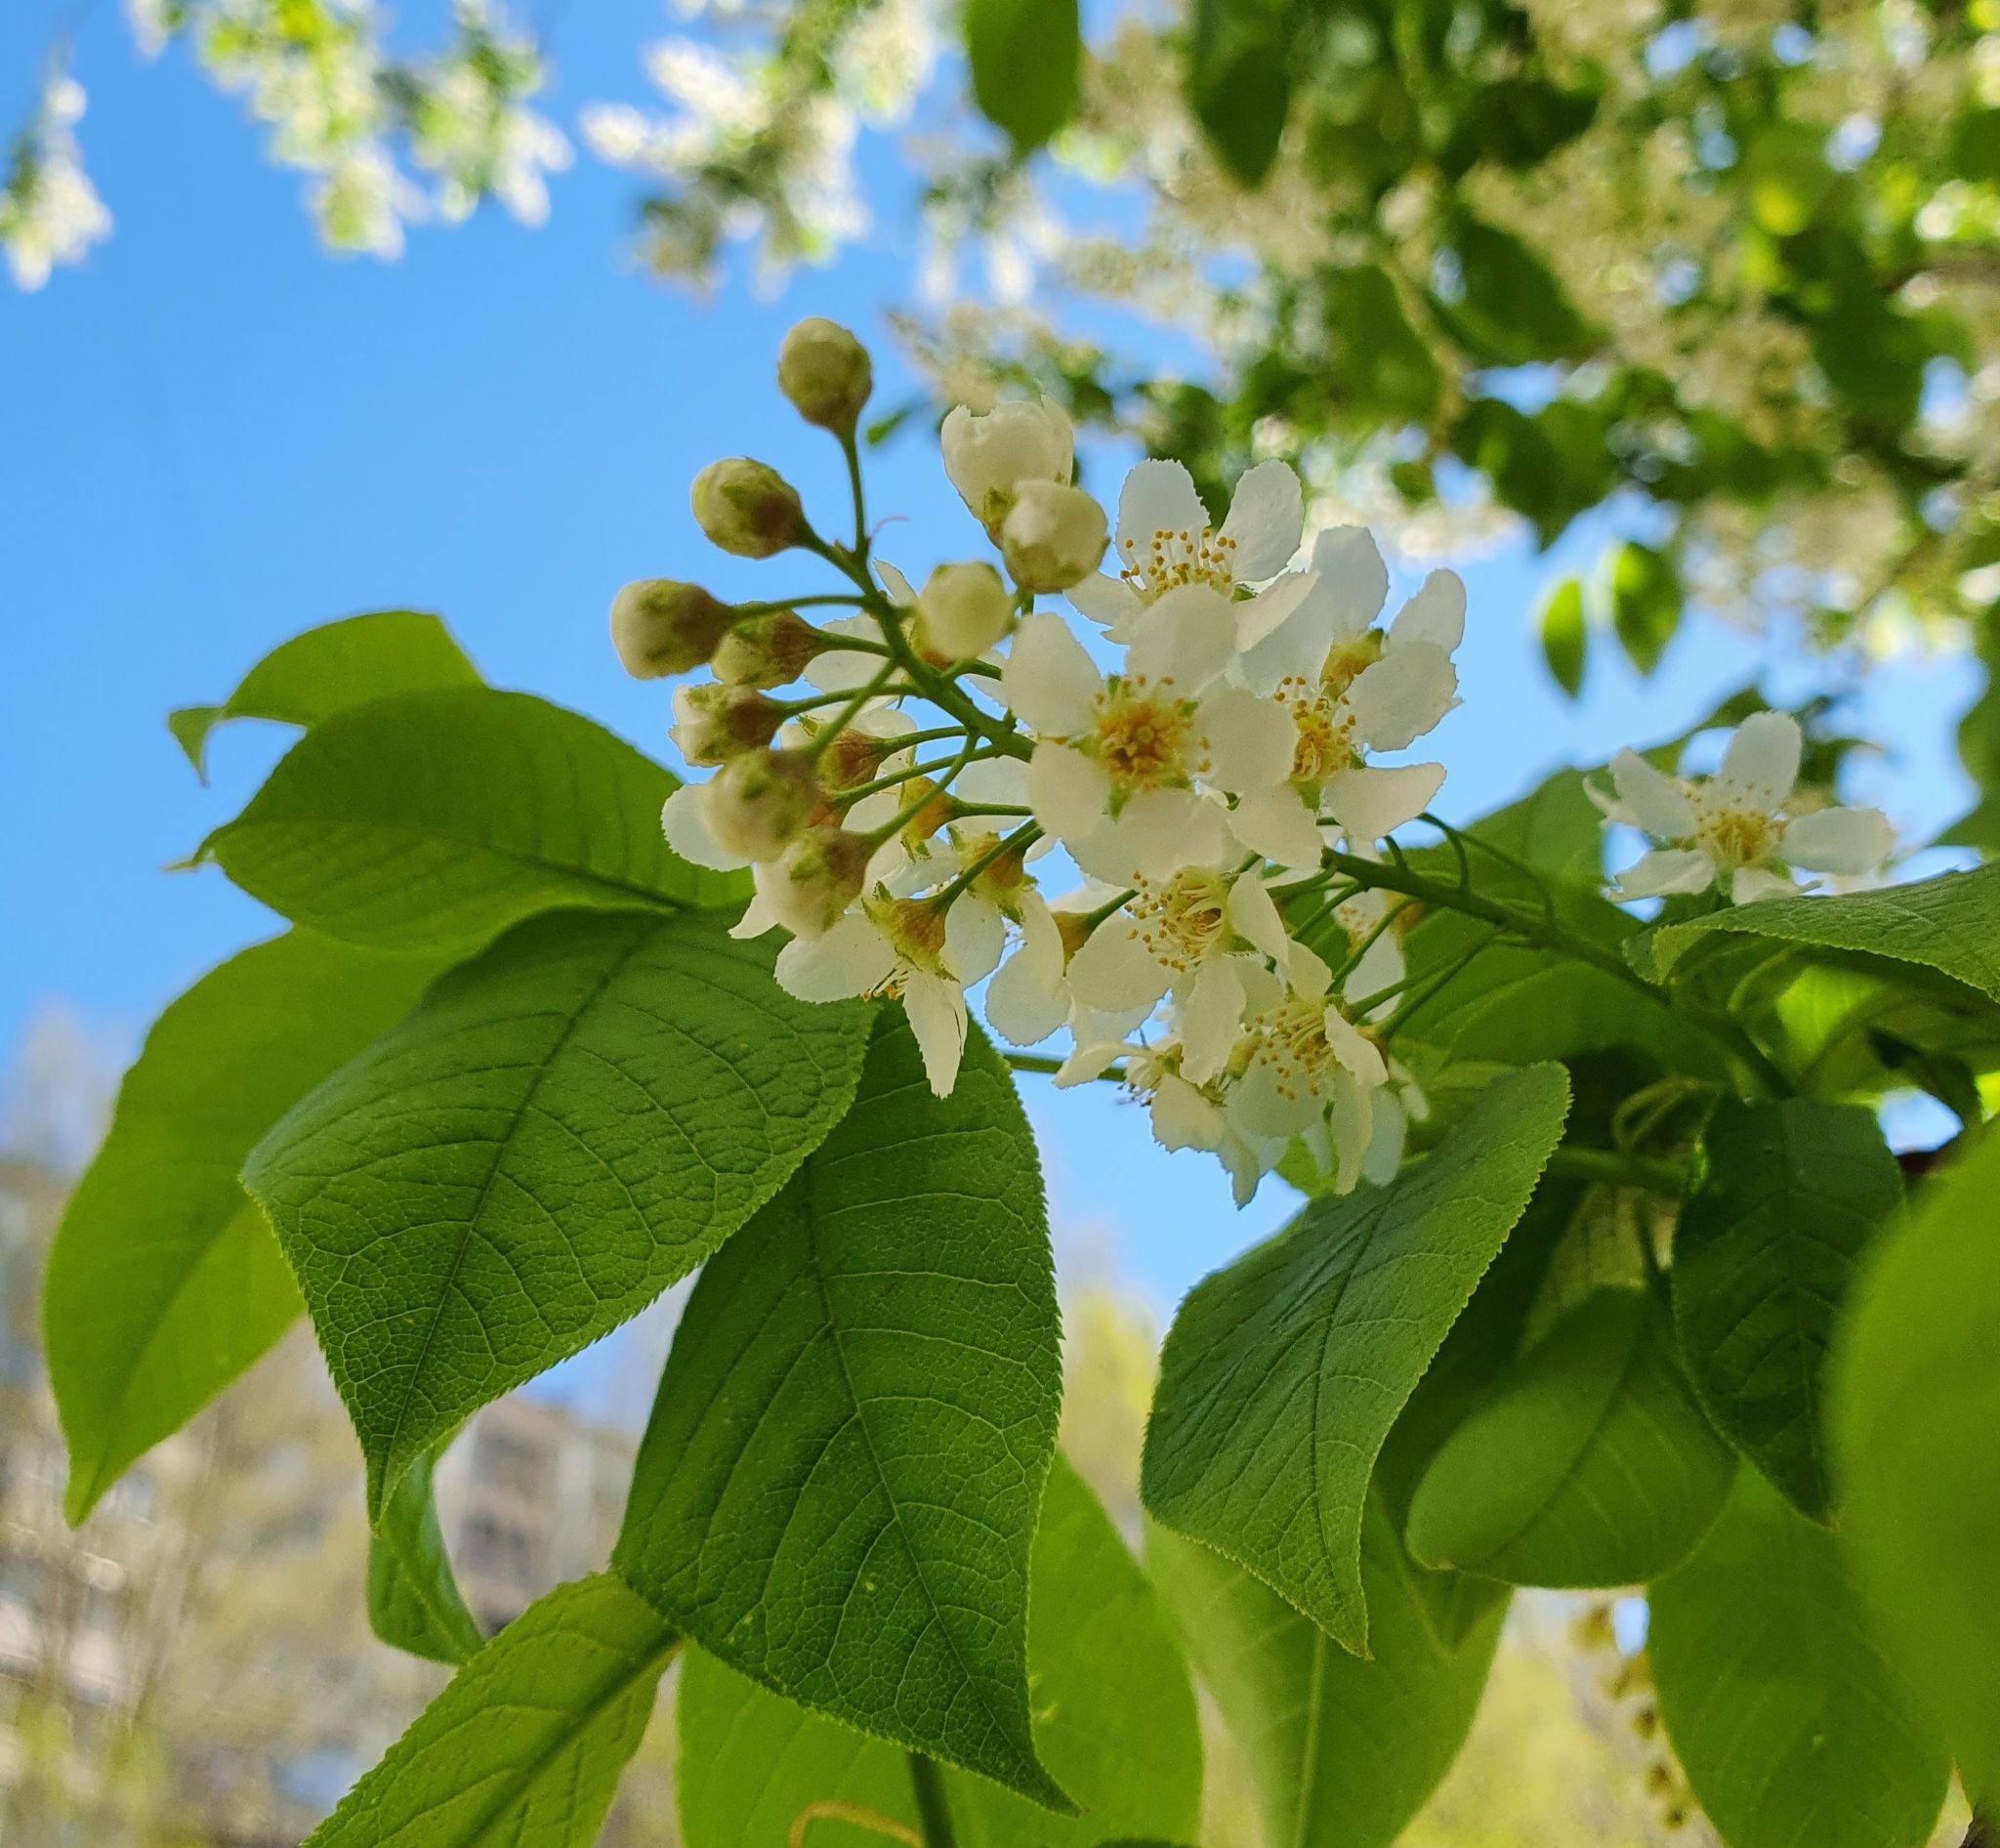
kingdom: Plantae
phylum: Tracheophyta
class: Magnoliopsida
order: Rosales
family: Rosaceae
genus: Prunus
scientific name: Prunus padus
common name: Bird cherry
